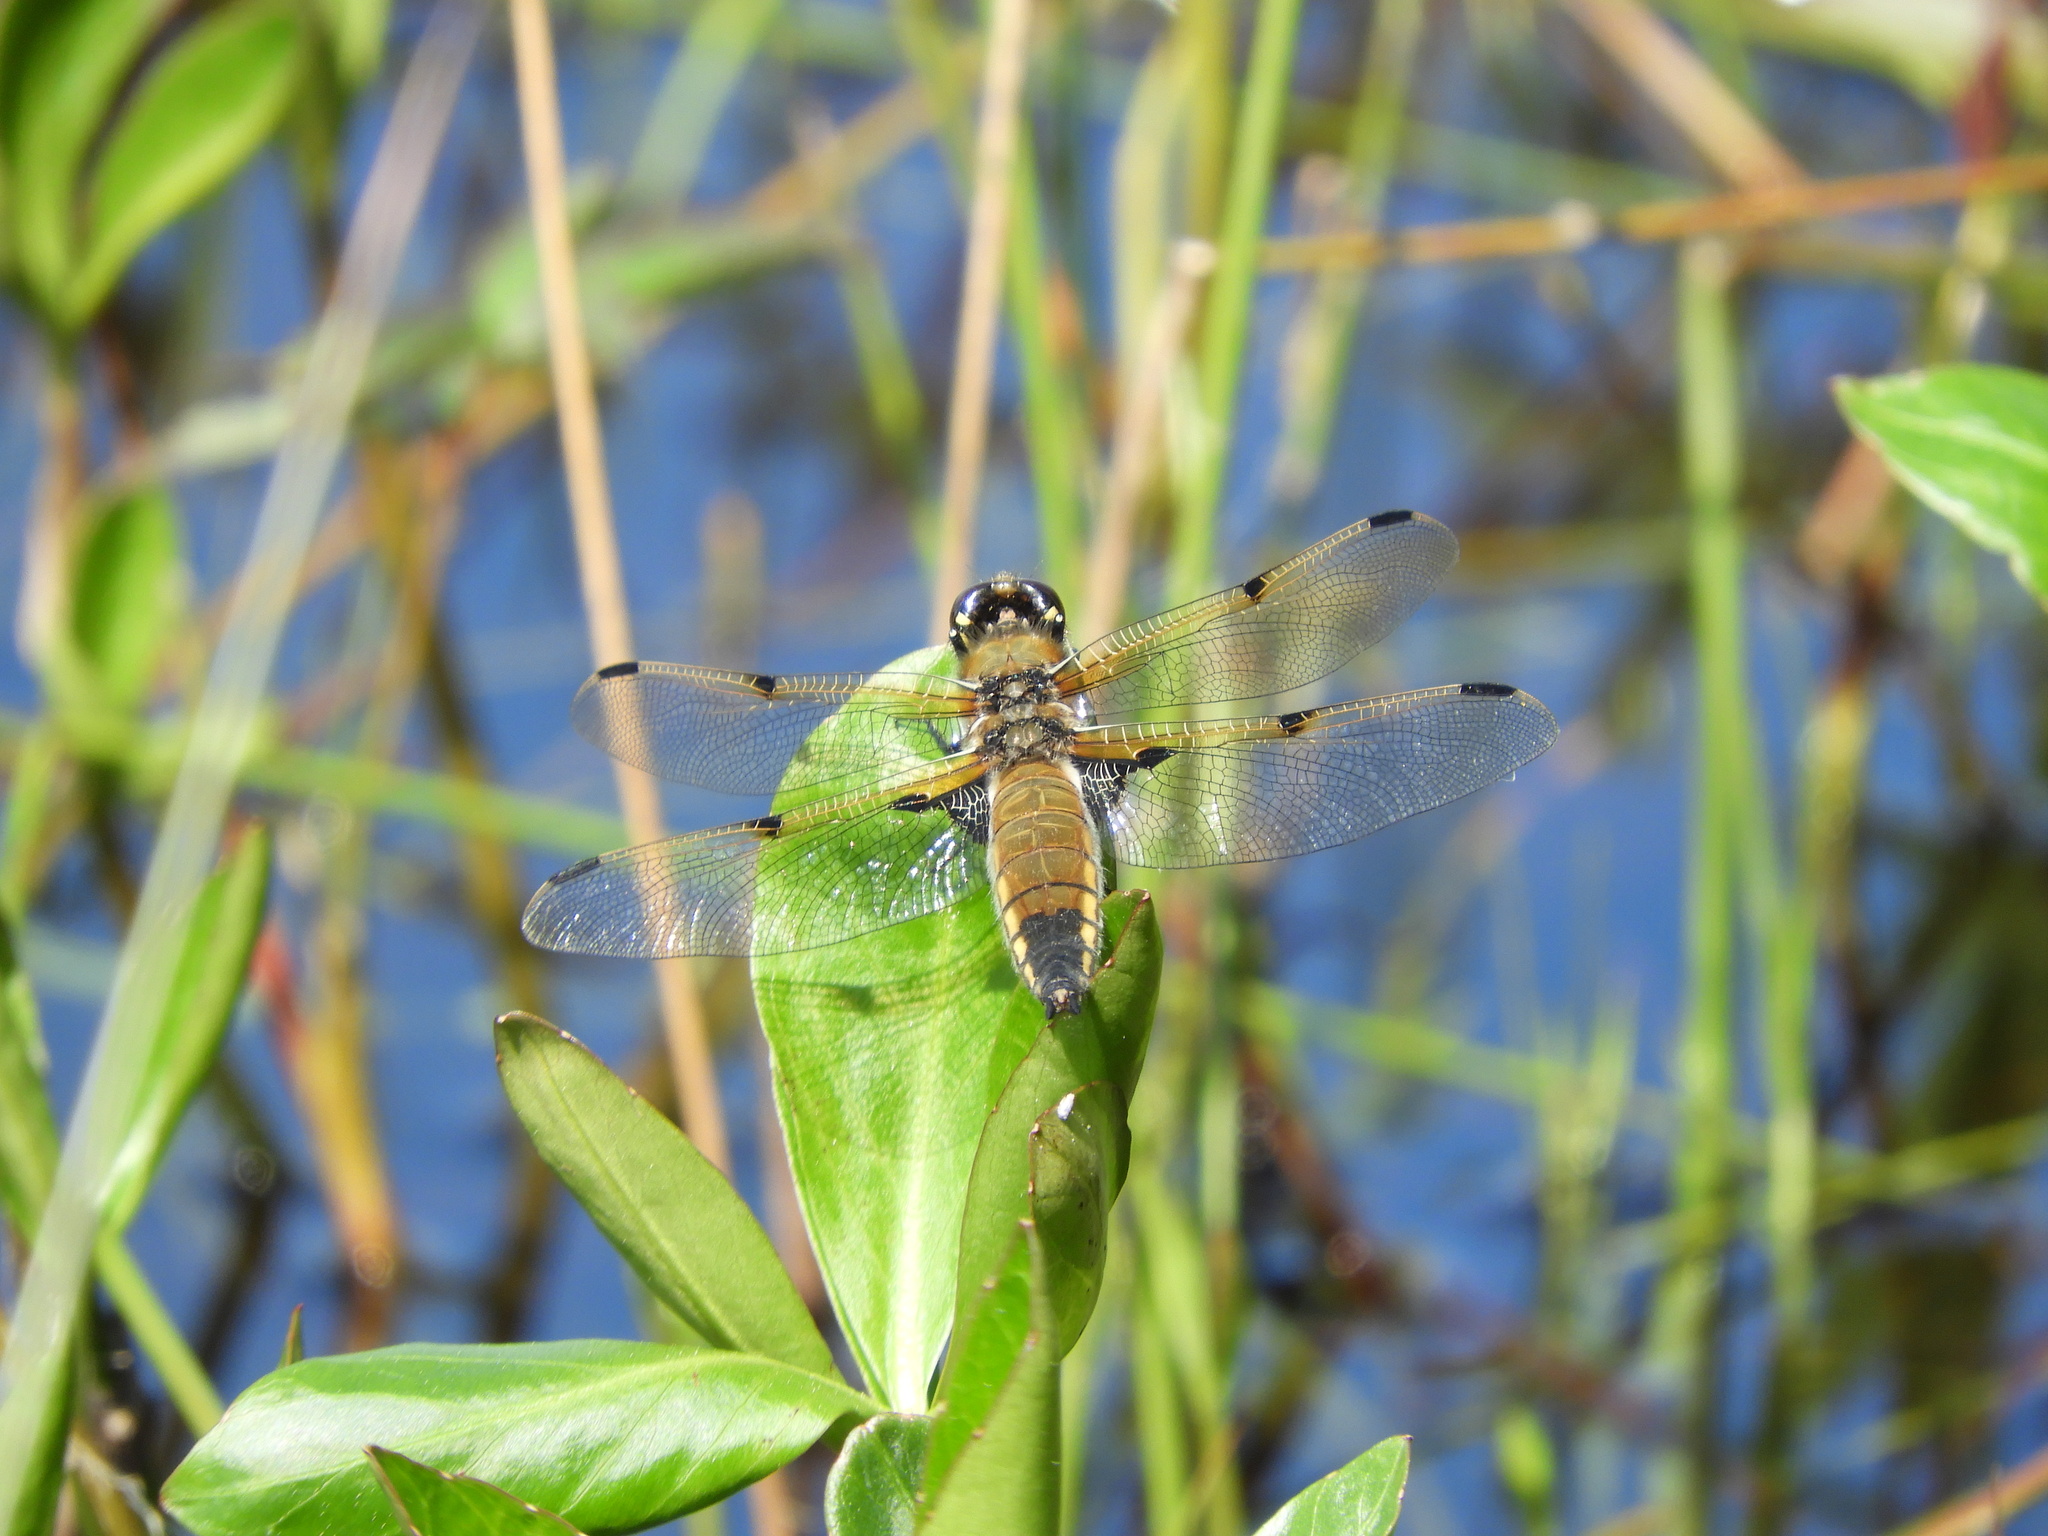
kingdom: Animalia
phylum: Arthropoda
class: Insecta
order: Odonata
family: Libellulidae
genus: Libellula
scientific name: Libellula quadrimaculata
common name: Four-spotted chaser
